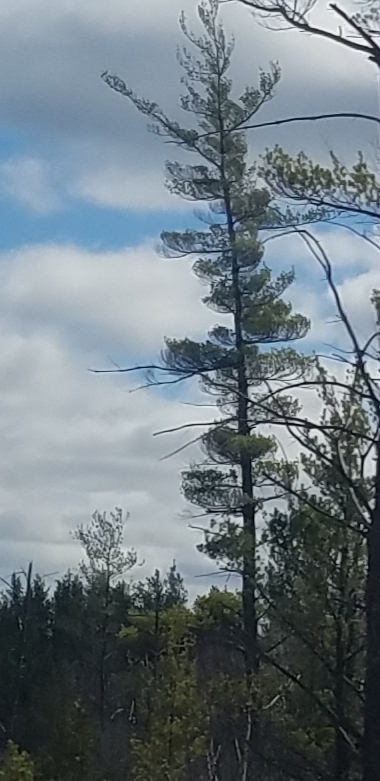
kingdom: Plantae
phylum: Tracheophyta
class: Pinopsida
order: Pinales
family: Pinaceae
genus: Pinus
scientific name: Pinus strobus
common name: Weymouth pine
